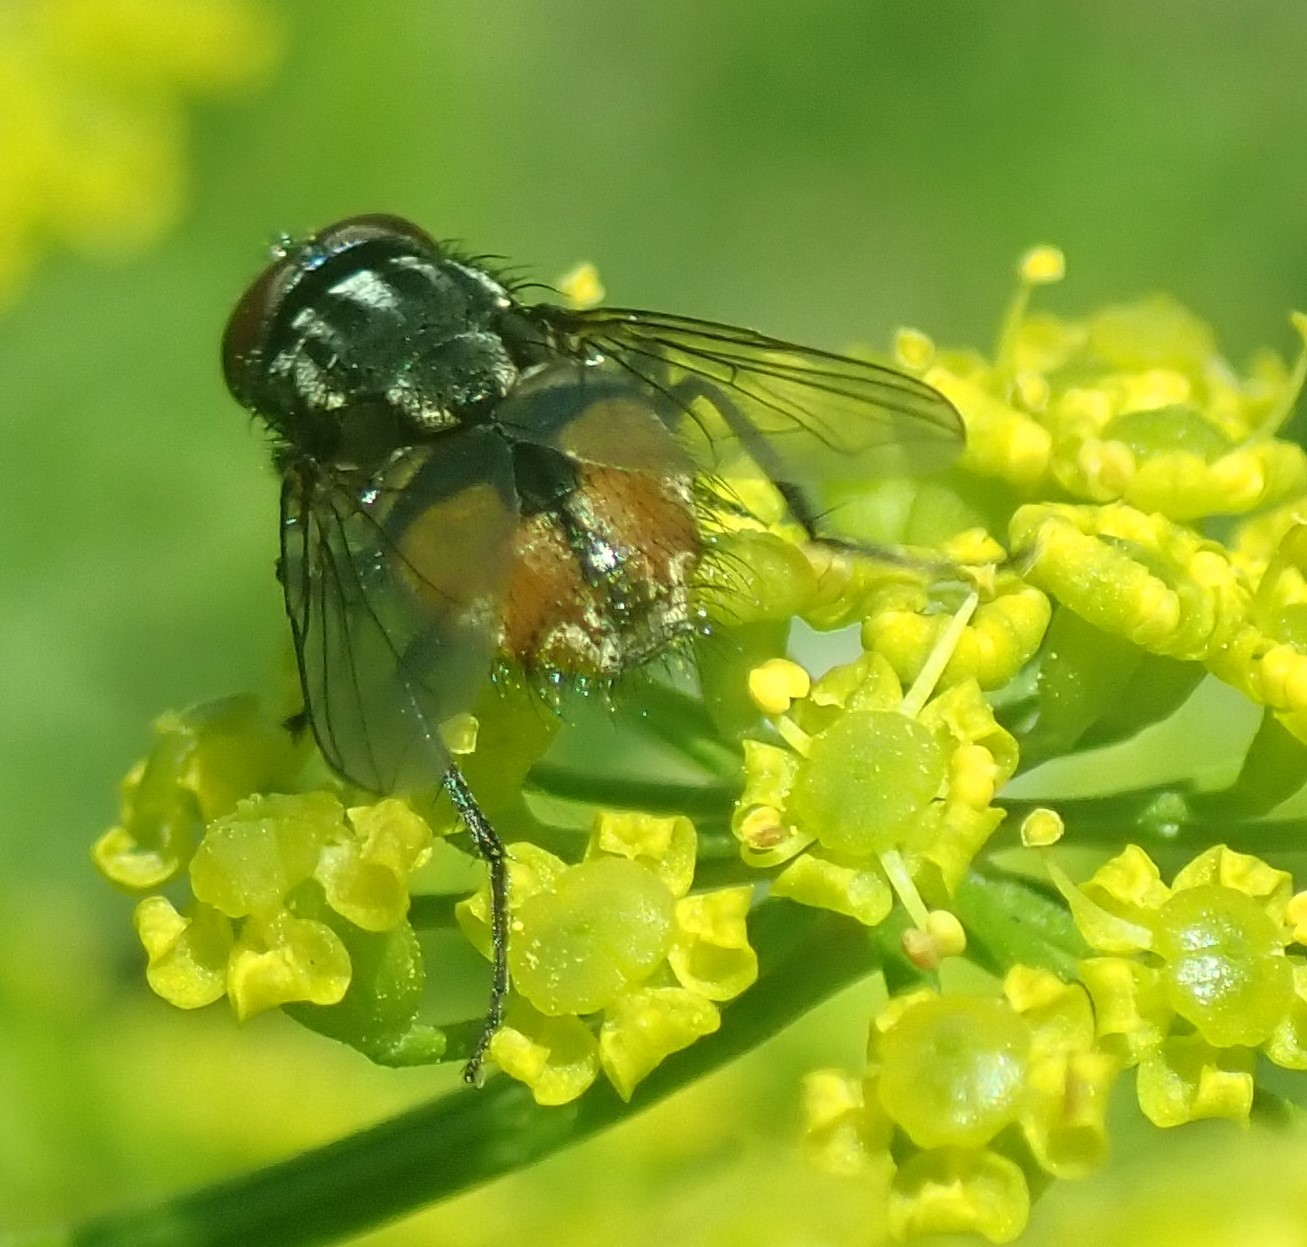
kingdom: Animalia
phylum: Arthropoda
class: Insecta
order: Diptera
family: Muscidae
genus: Musca
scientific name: Musca autumnalis
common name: Face fly
